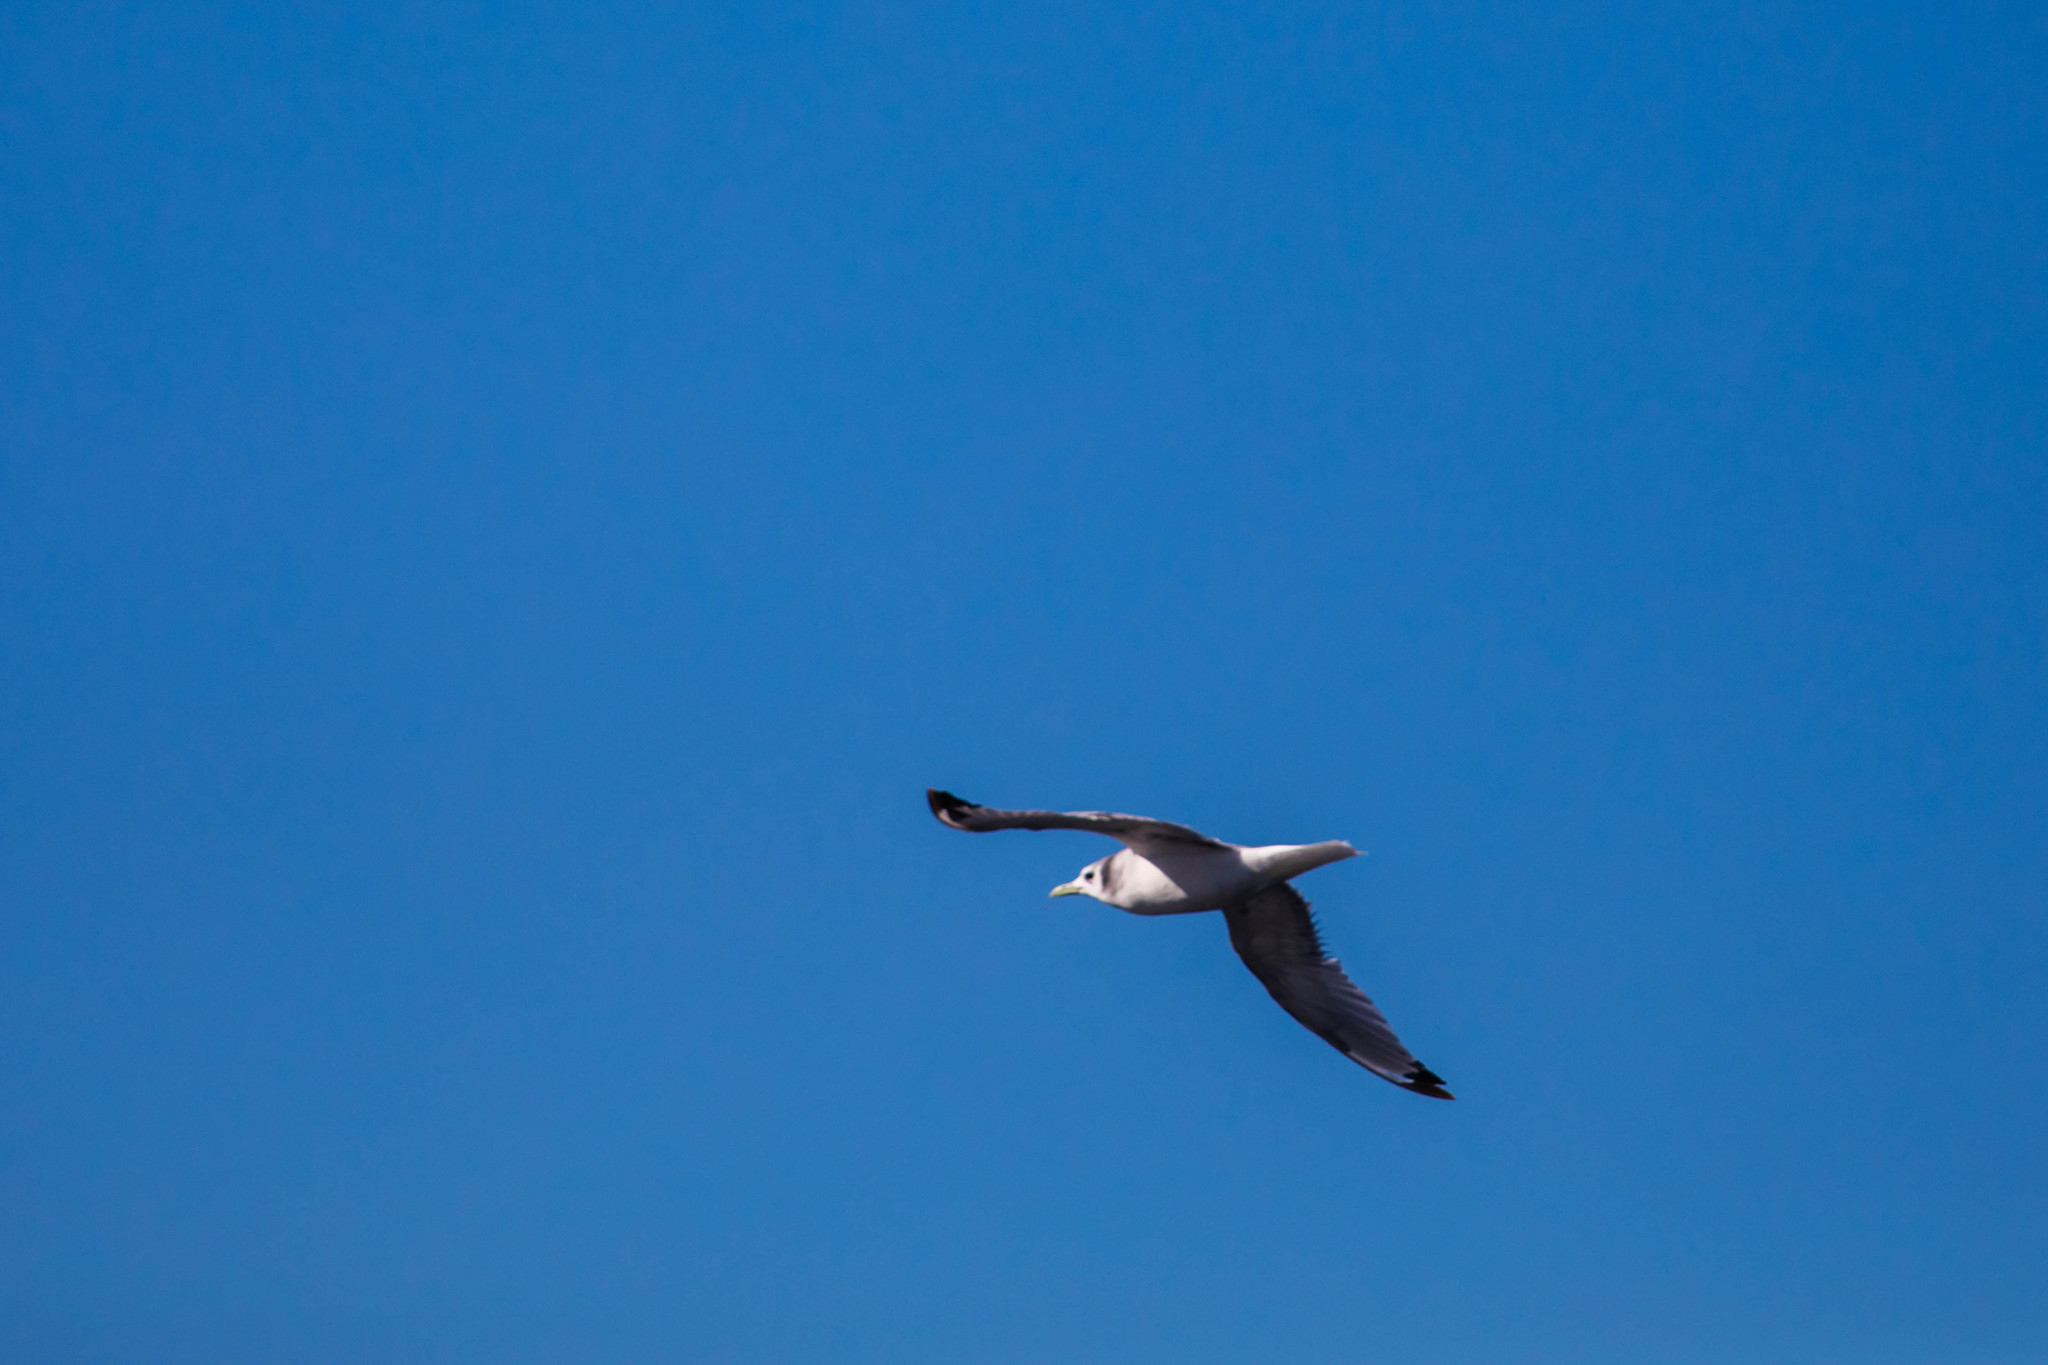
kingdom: Animalia
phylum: Chordata
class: Aves
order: Charadriiformes
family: Laridae
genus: Rissa
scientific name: Rissa tridactyla
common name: Black-legged kittiwake
